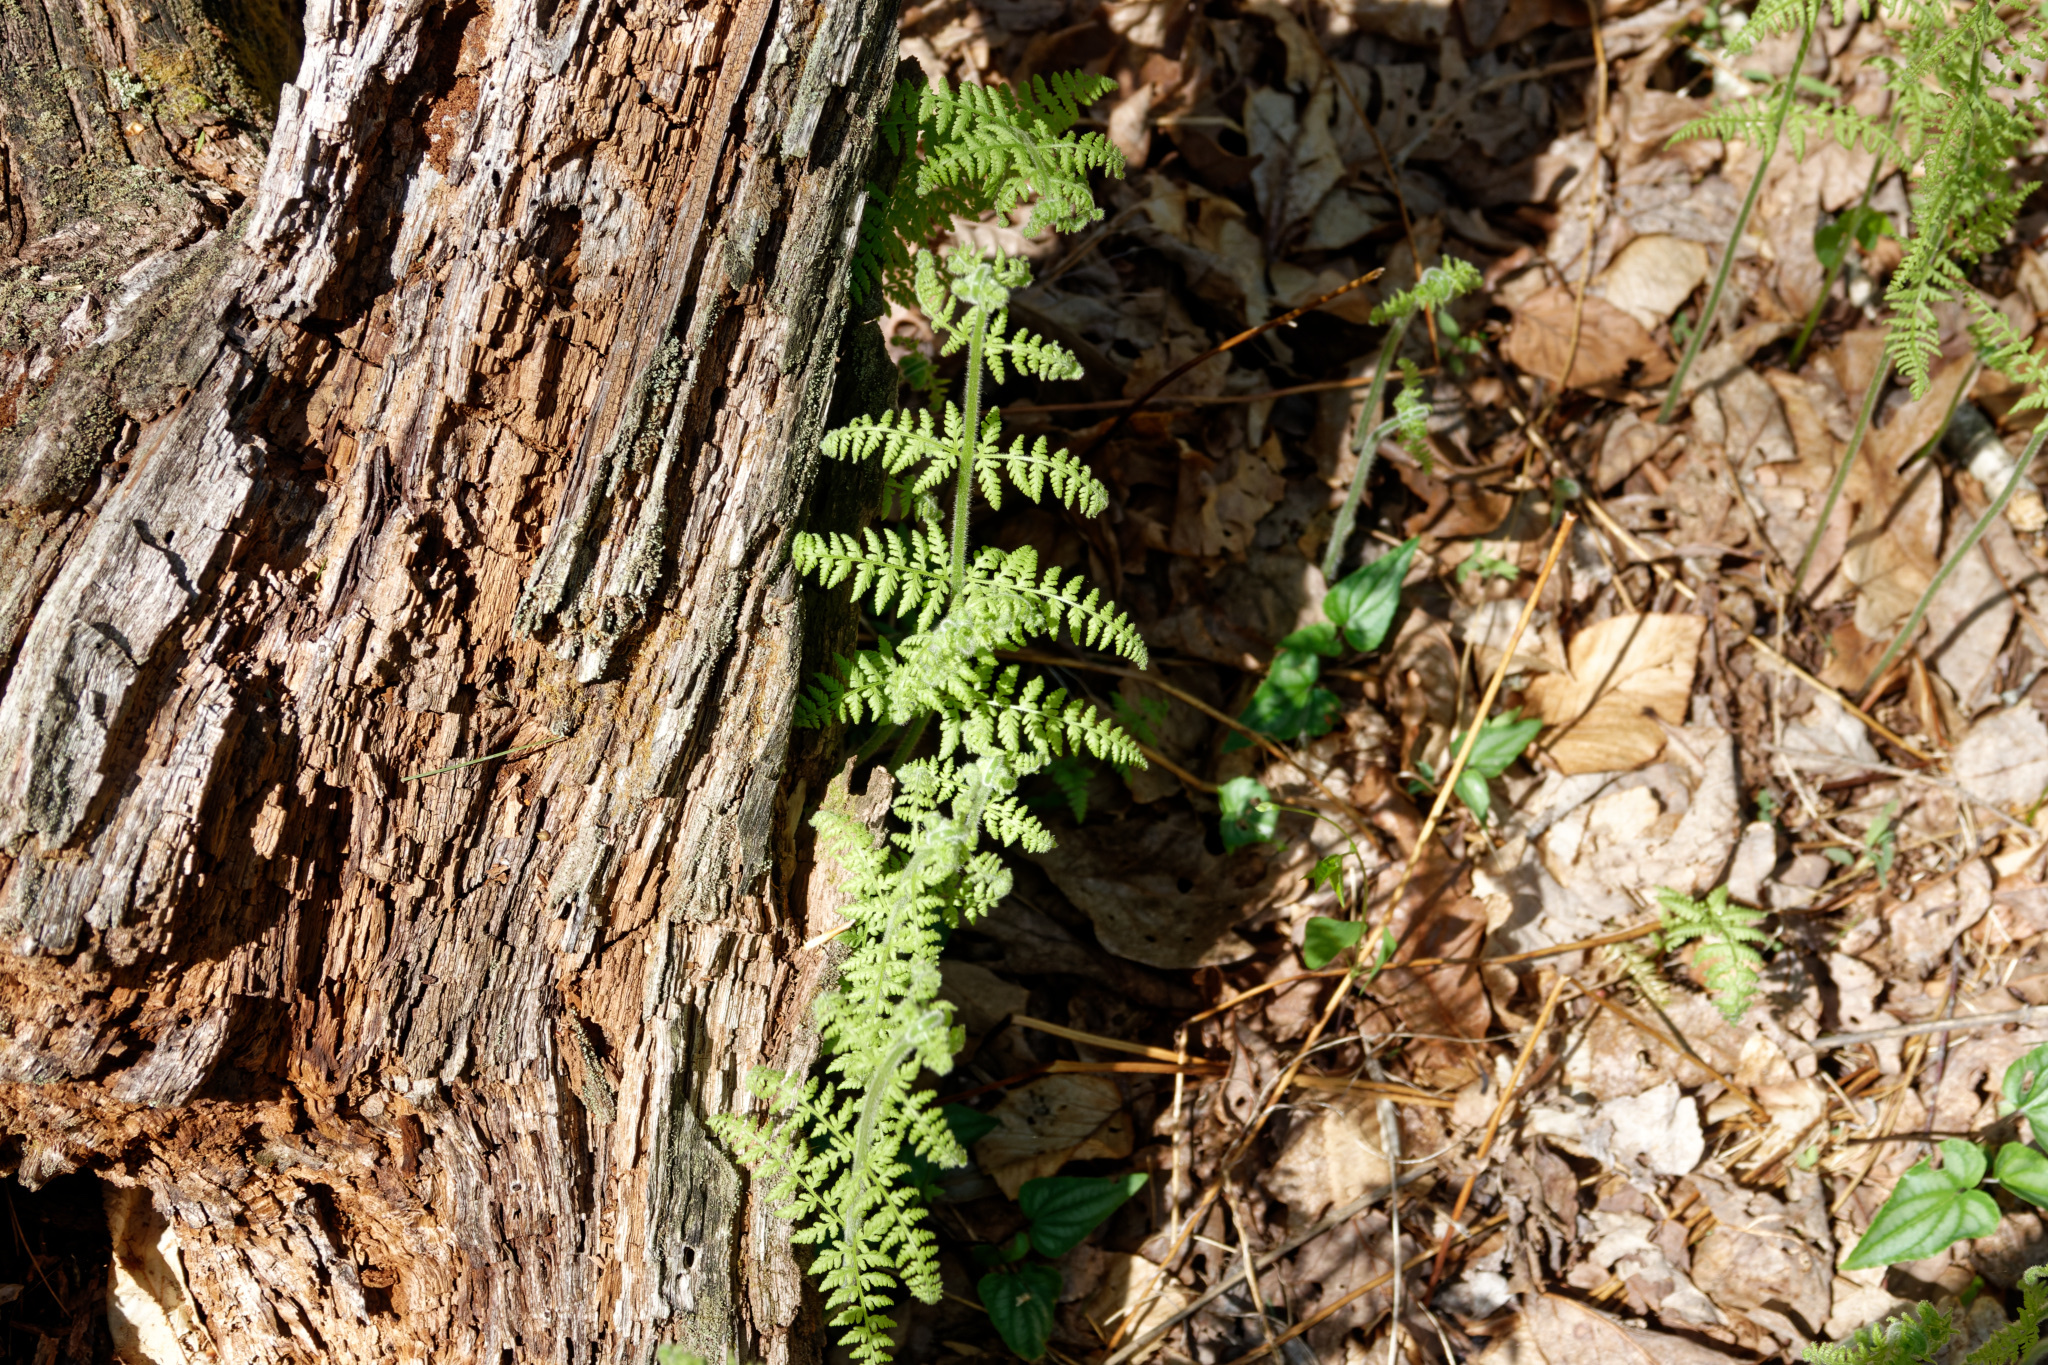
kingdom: Plantae
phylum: Tracheophyta
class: Polypodiopsida
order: Polypodiales
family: Dennstaedtiaceae
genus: Sitobolium
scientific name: Sitobolium punctilobum
